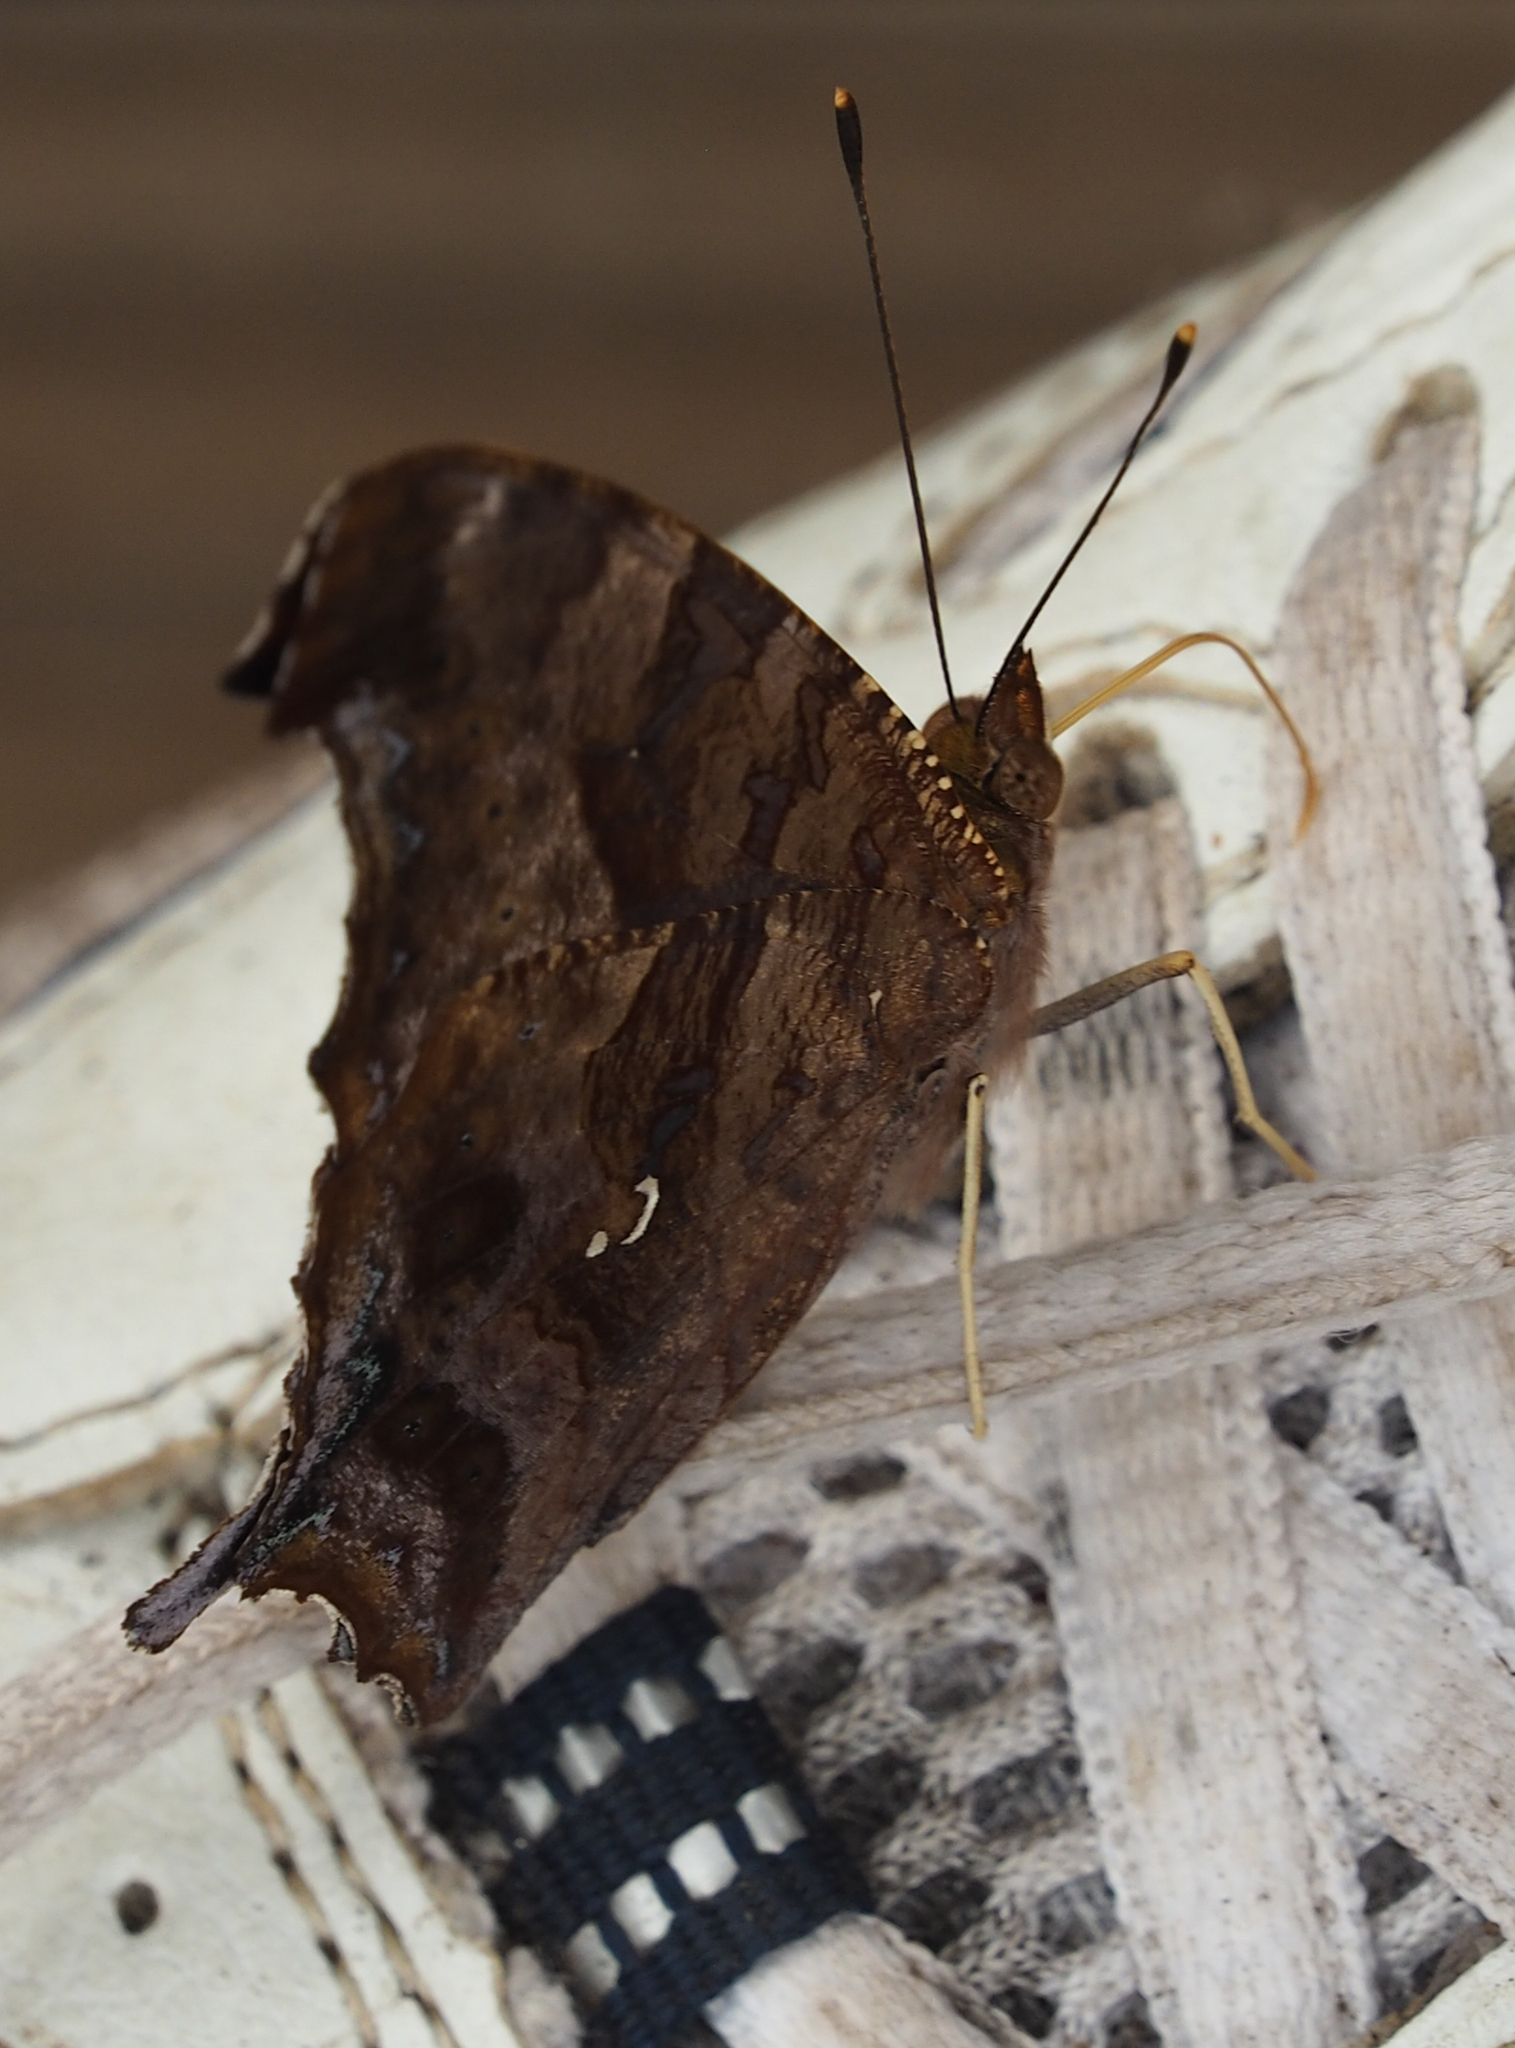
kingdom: Animalia
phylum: Arthropoda
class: Insecta
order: Lepidoptera
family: Nymphalidae
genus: Polygonia
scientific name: Polygonia interrogationis
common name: Question mark
